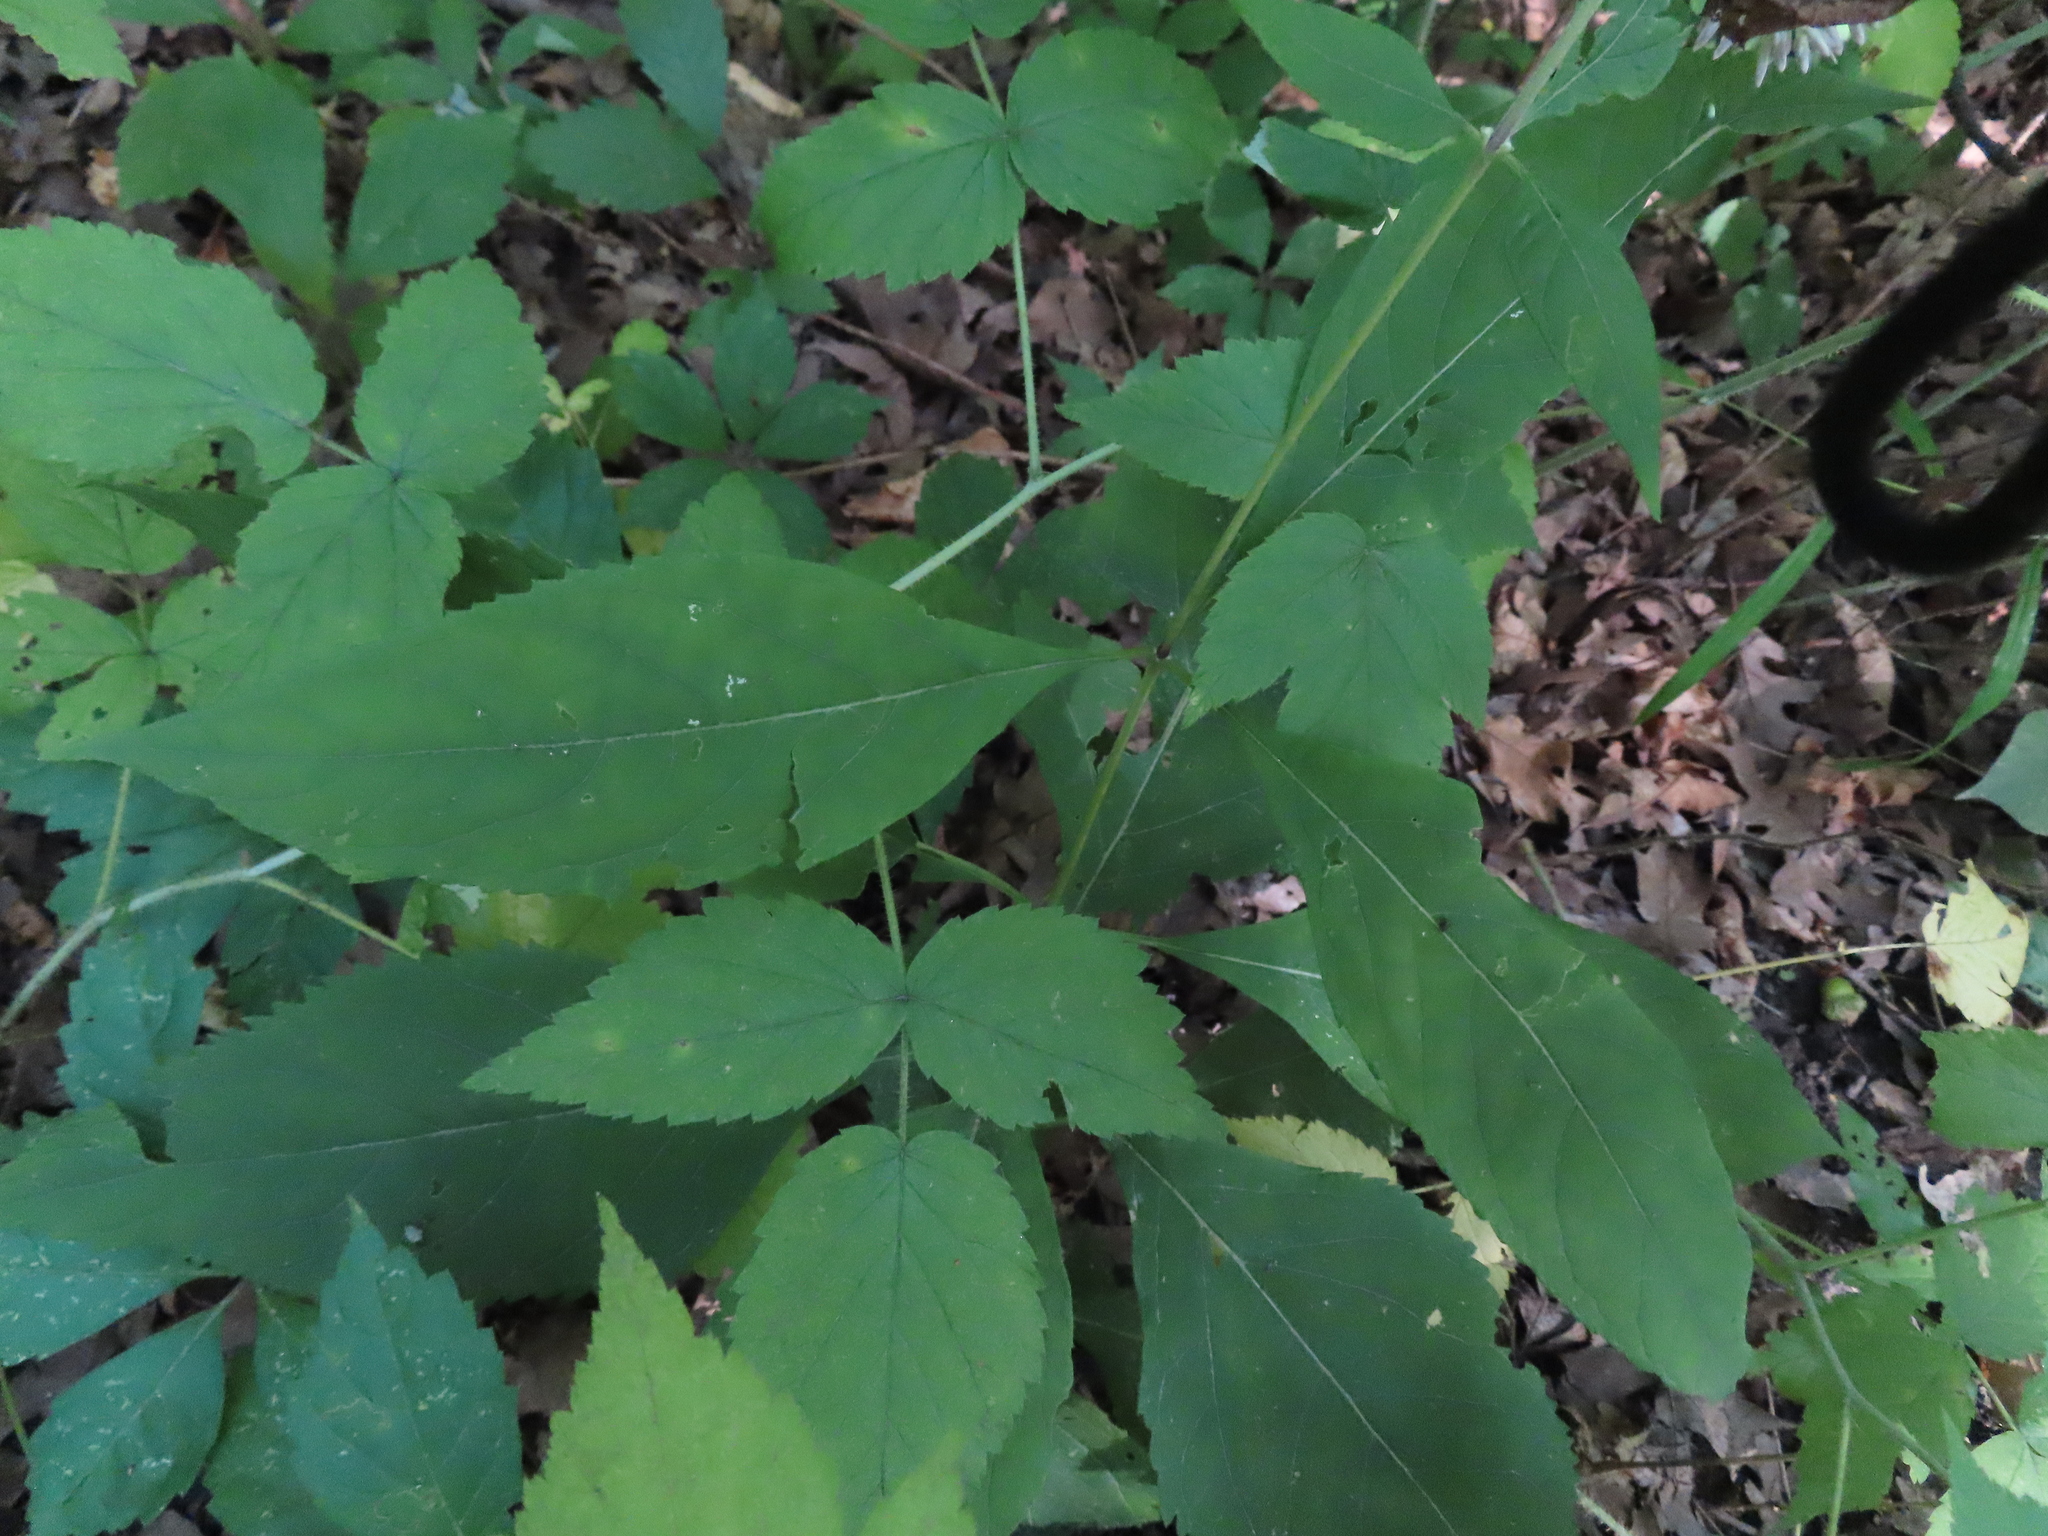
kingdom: Plantae
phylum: Tracheophyta
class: Magnoliopsida
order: Asterales
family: Asteraceae
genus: Eutrochium
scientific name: Eutrochium purpureum
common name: Gravelroot
